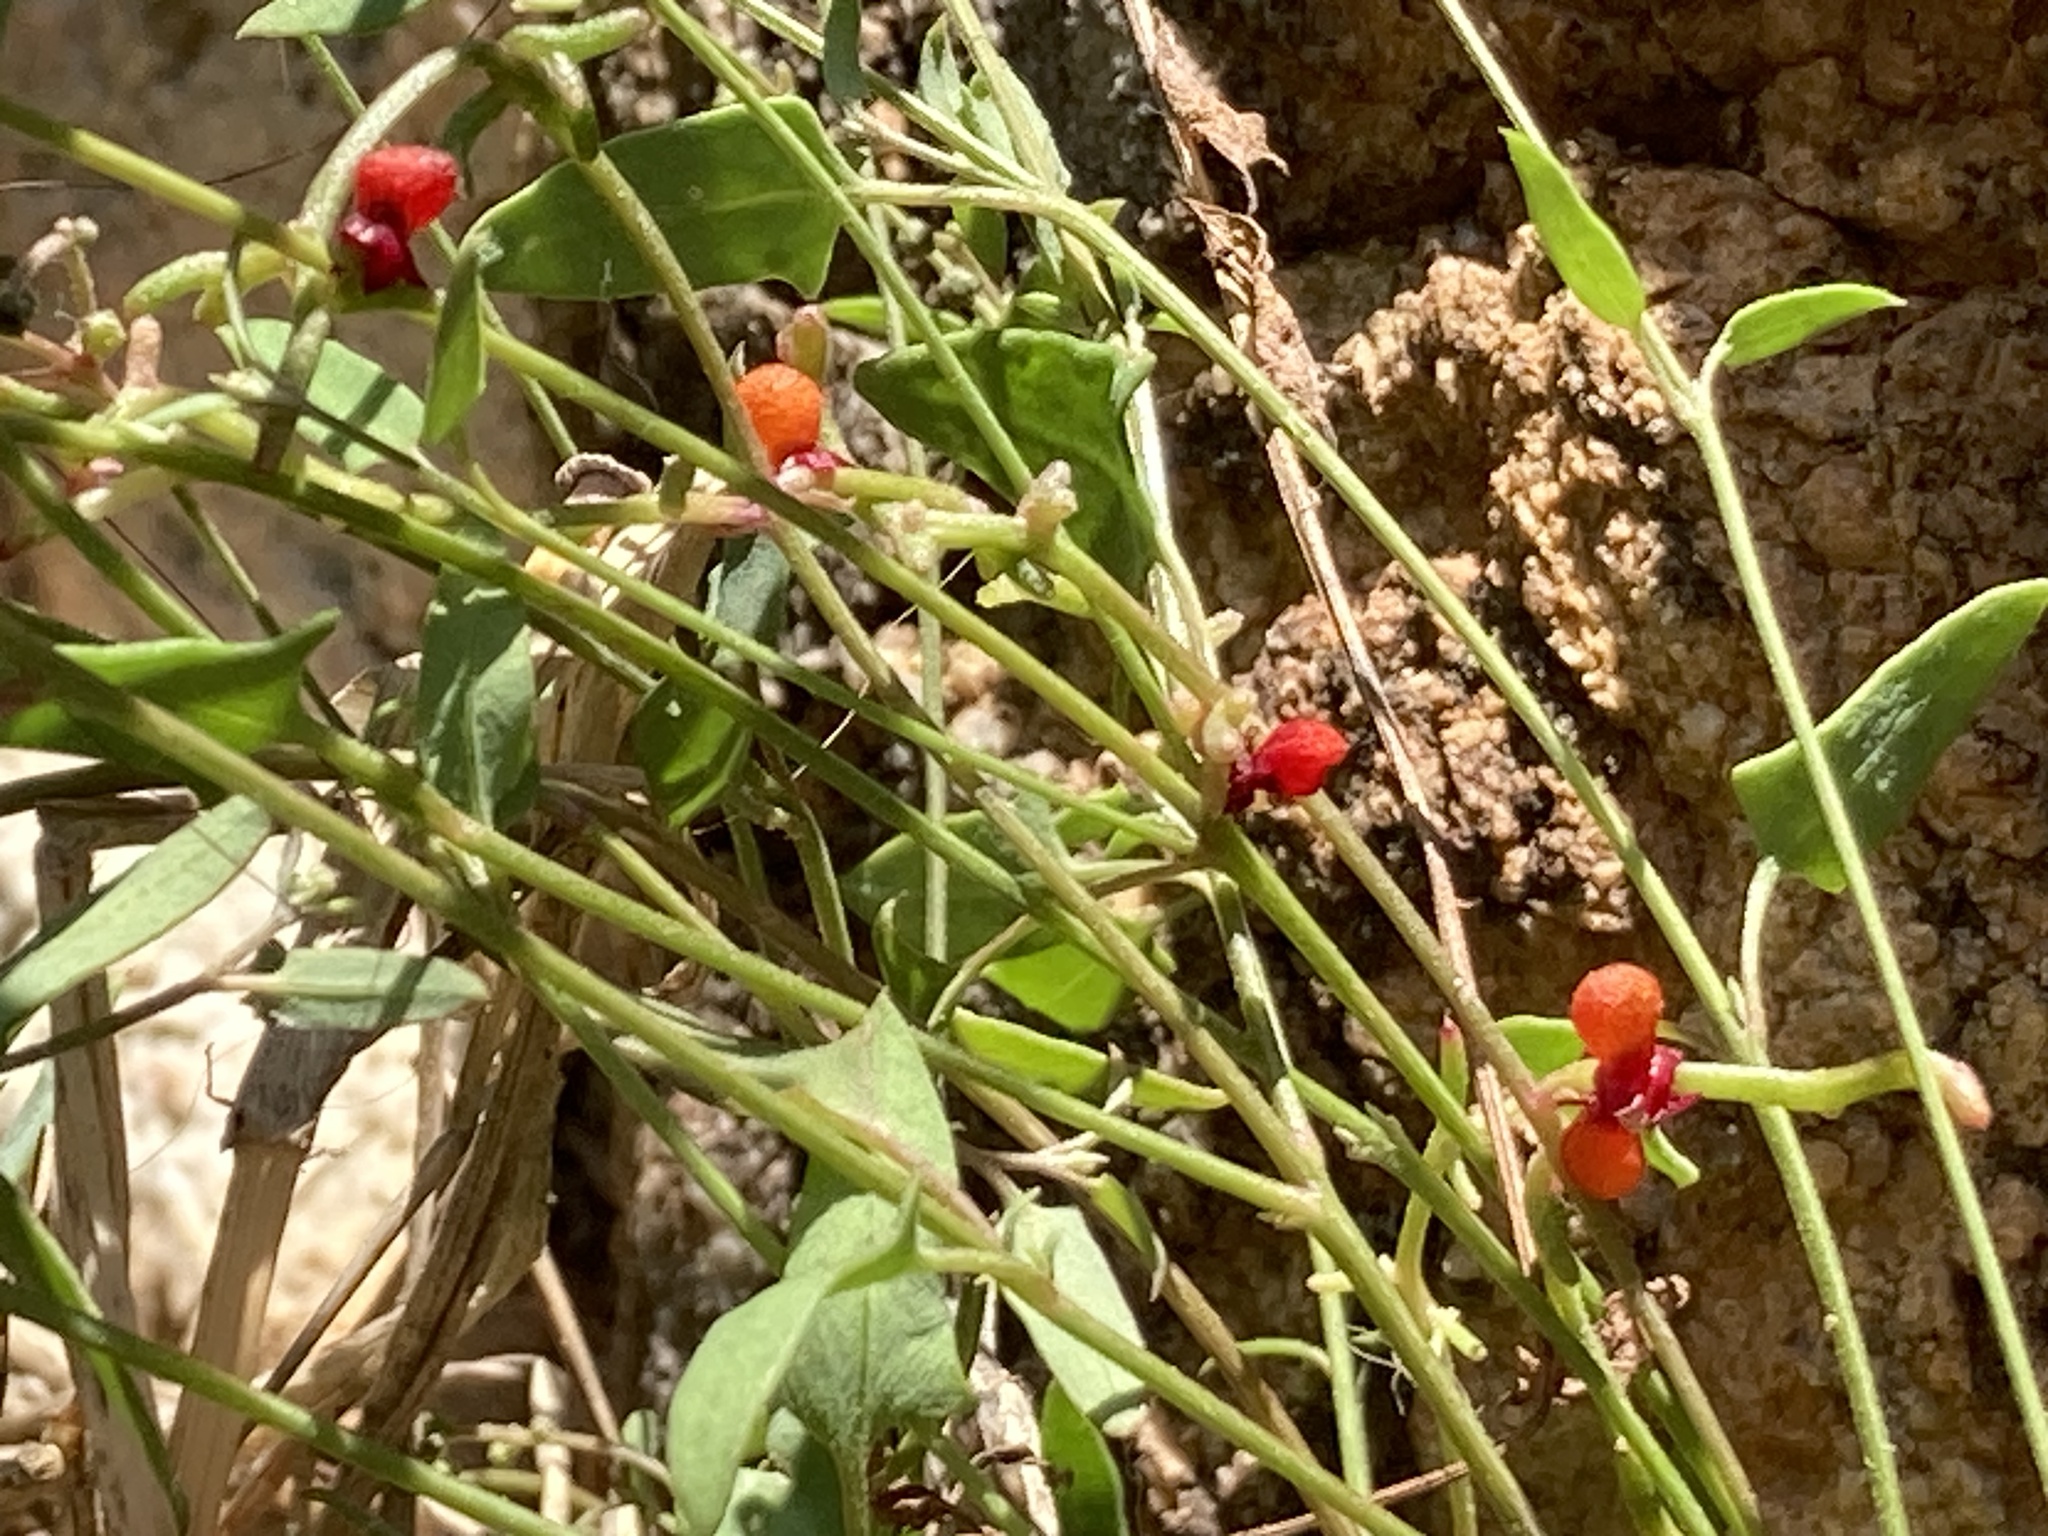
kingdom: Plantae
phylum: Tracheophyta
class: Magnoliopsida
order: Caryophyllales
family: Amaranthaceae
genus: Chenopodium
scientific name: Chenopodium nutans
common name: Climbing-saltbush
